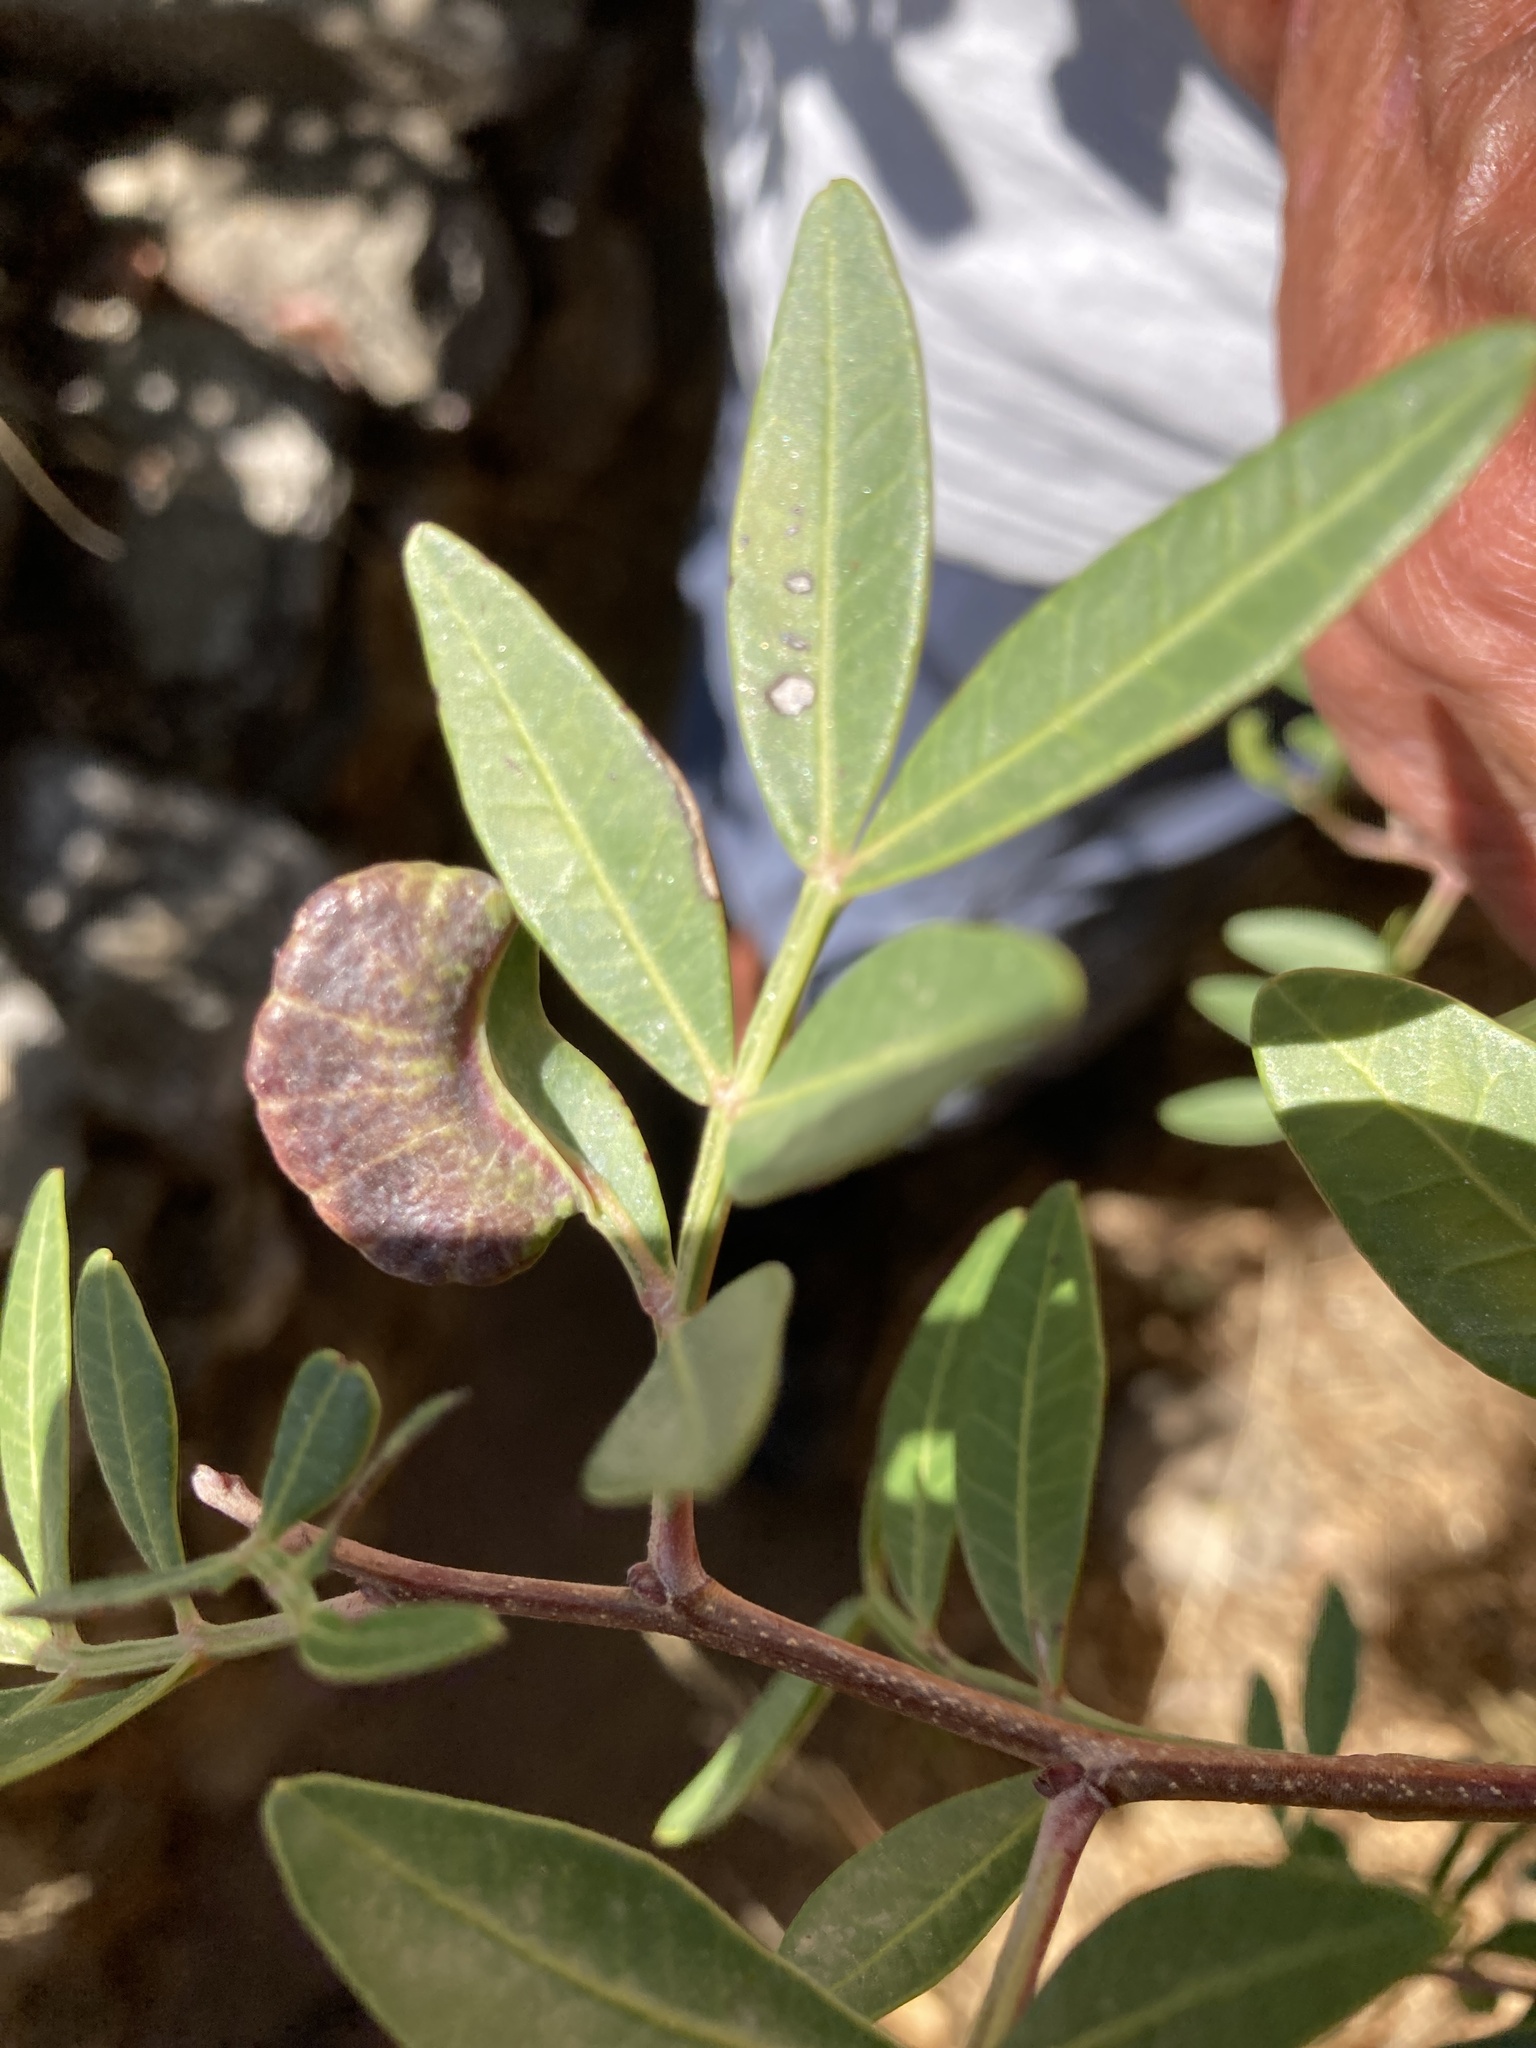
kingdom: Plantae
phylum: Tracheophyta
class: Magnoliopsida
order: Sapindales
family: Anacardiaceae
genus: Pistacia
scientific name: Pistacia lentiscus
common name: Lentisk
